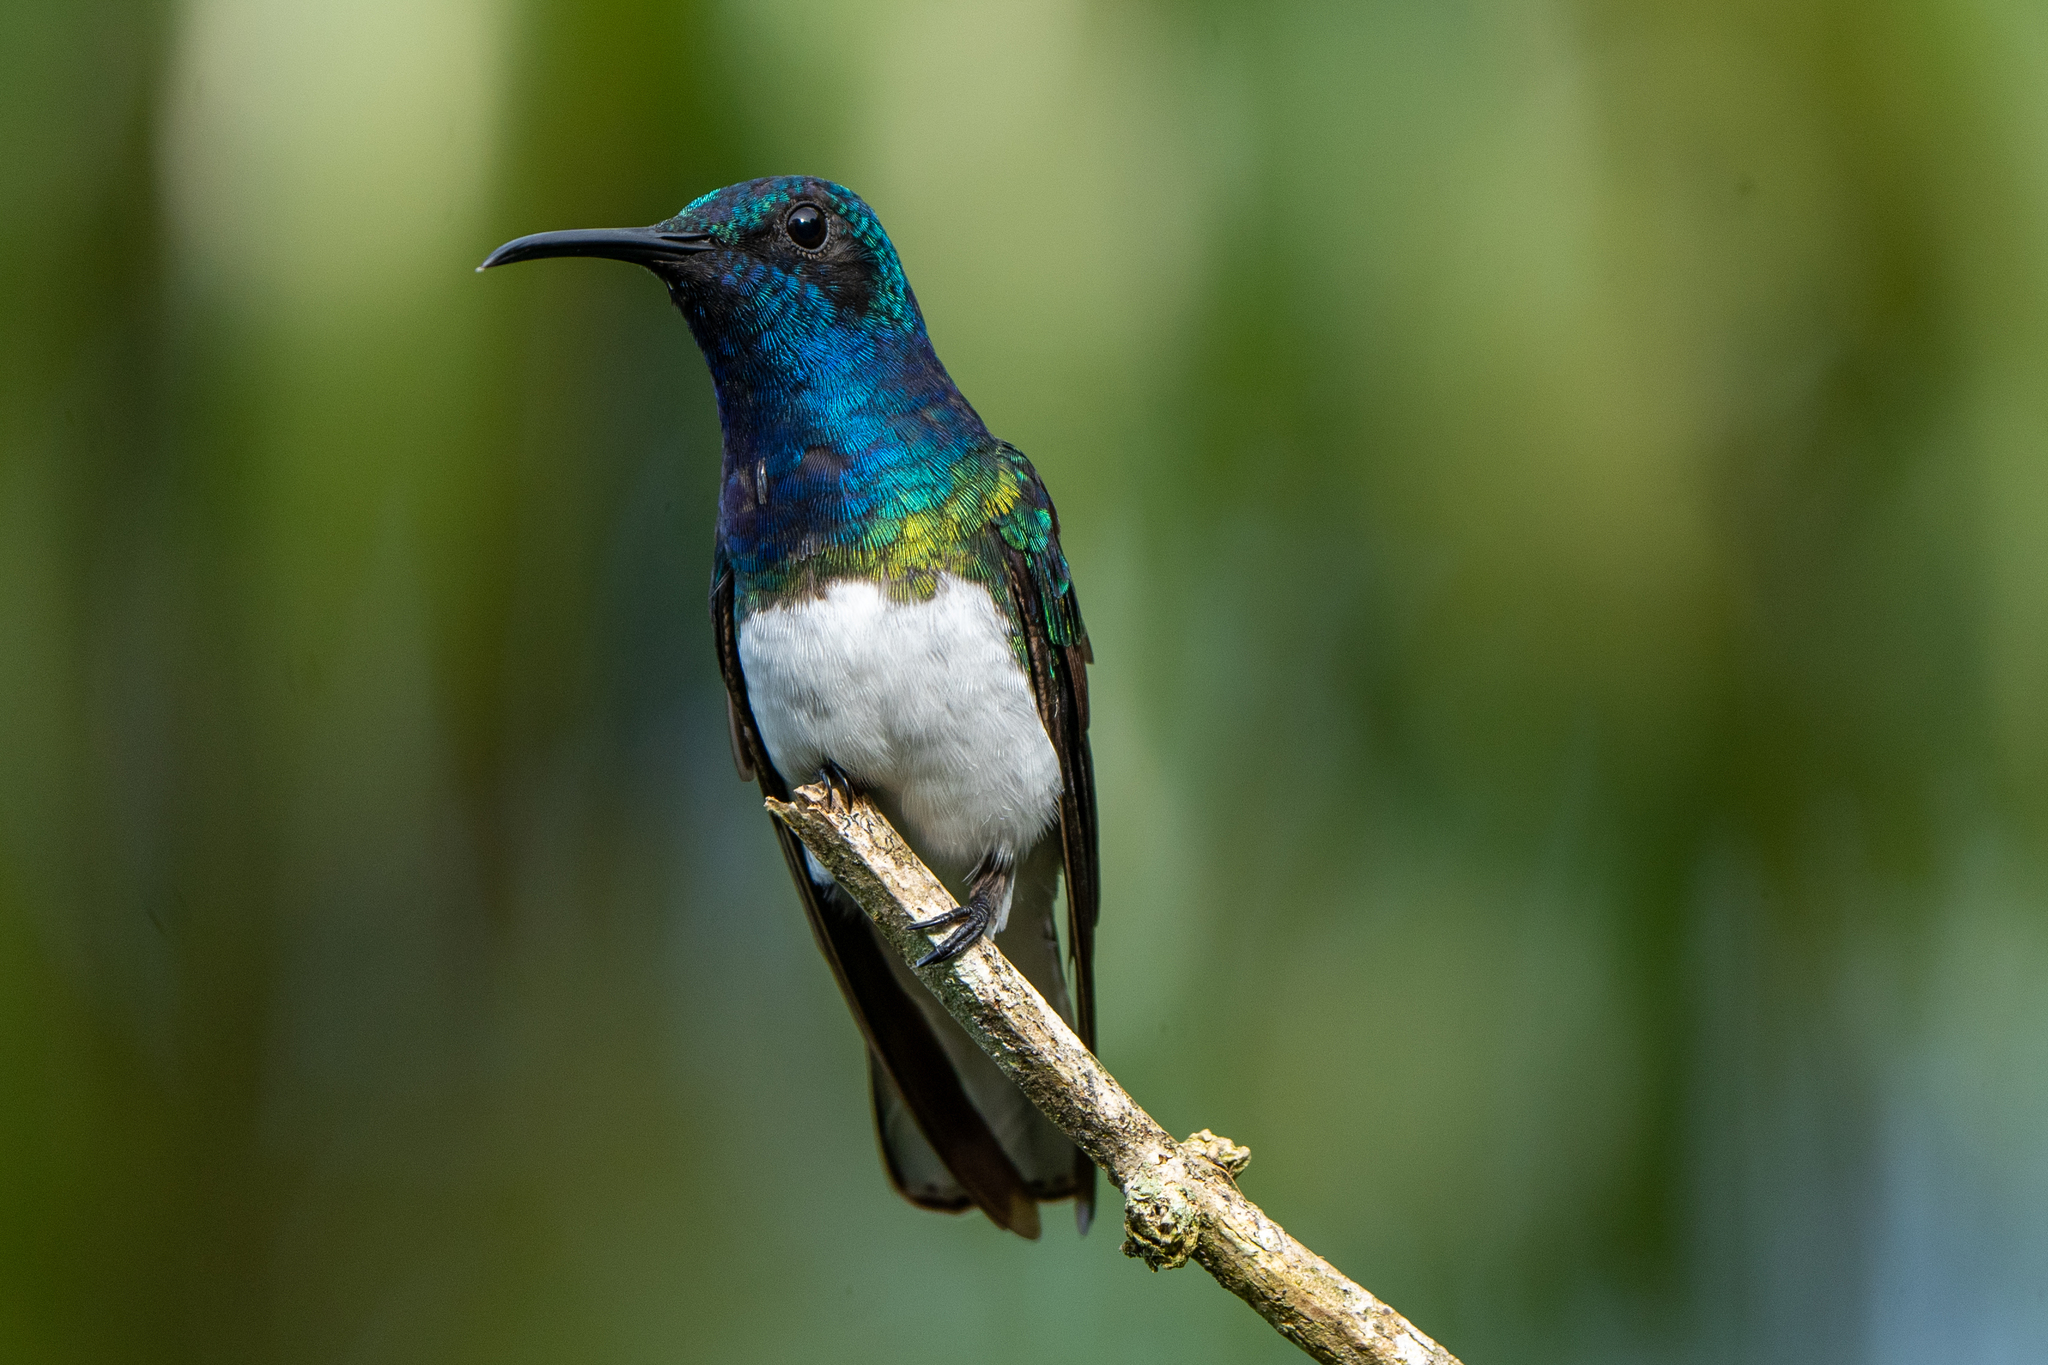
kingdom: Animalia
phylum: Chordata
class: Aves
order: Apodiformes
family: Trochilidae
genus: Florisuga
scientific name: Florisuga mellivora
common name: White-necked jacobin
